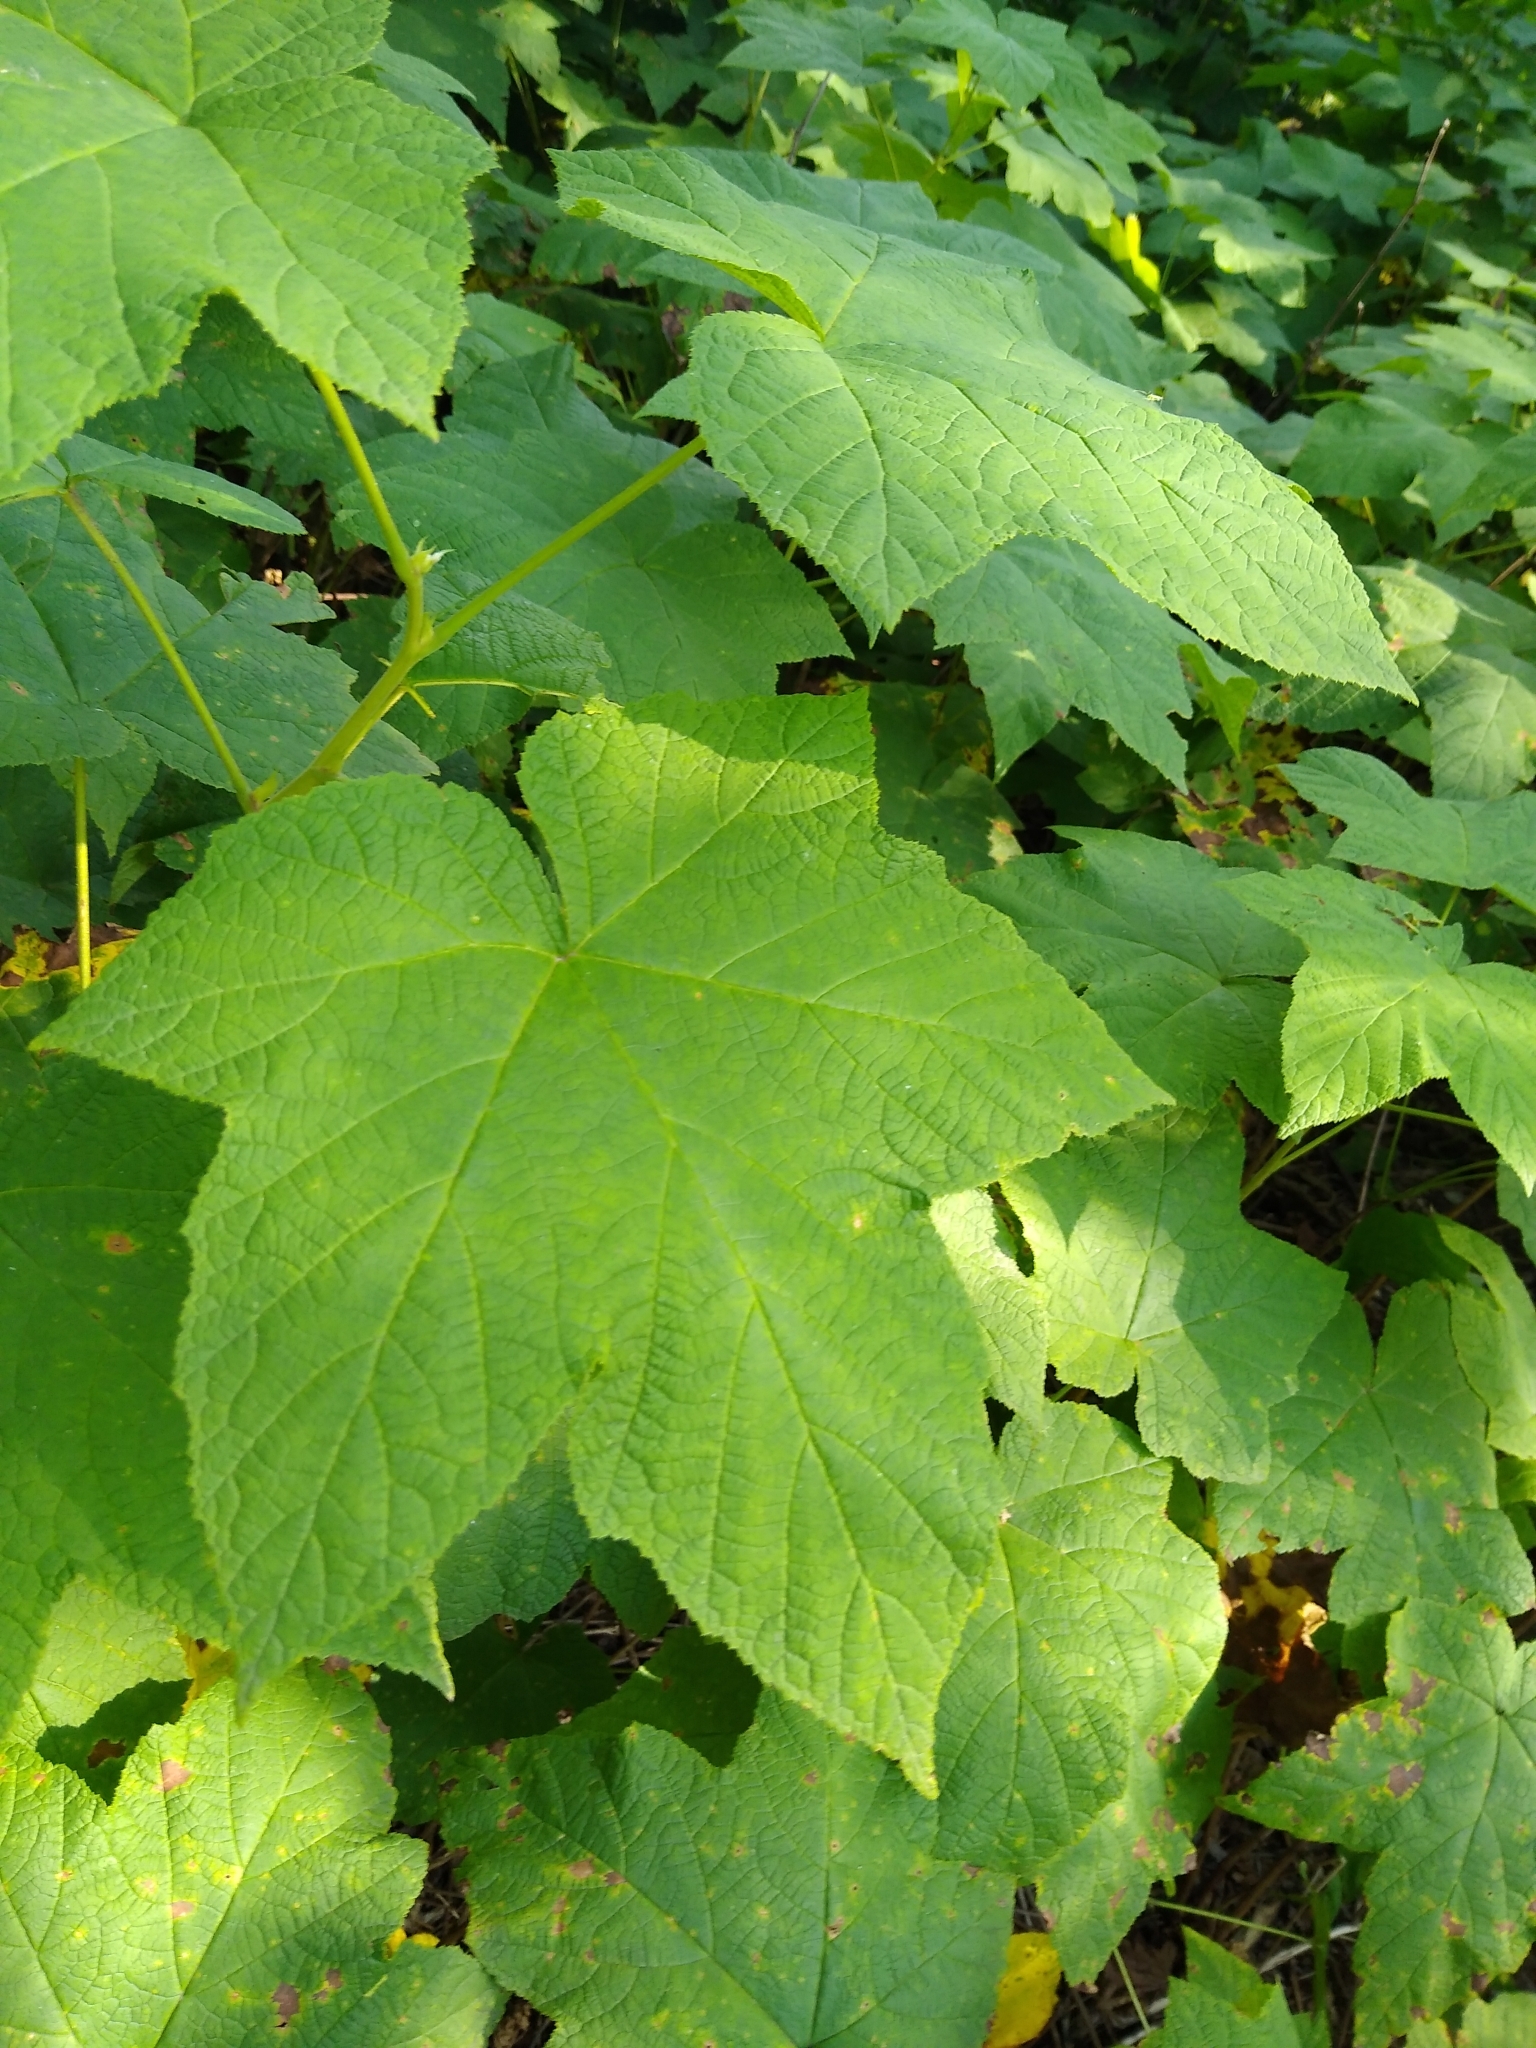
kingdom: Plantae
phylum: Tracheophyta
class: Magnoliopsida
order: Rosales
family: Rosaceae
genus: Rubus
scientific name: Rubus parviflorus
